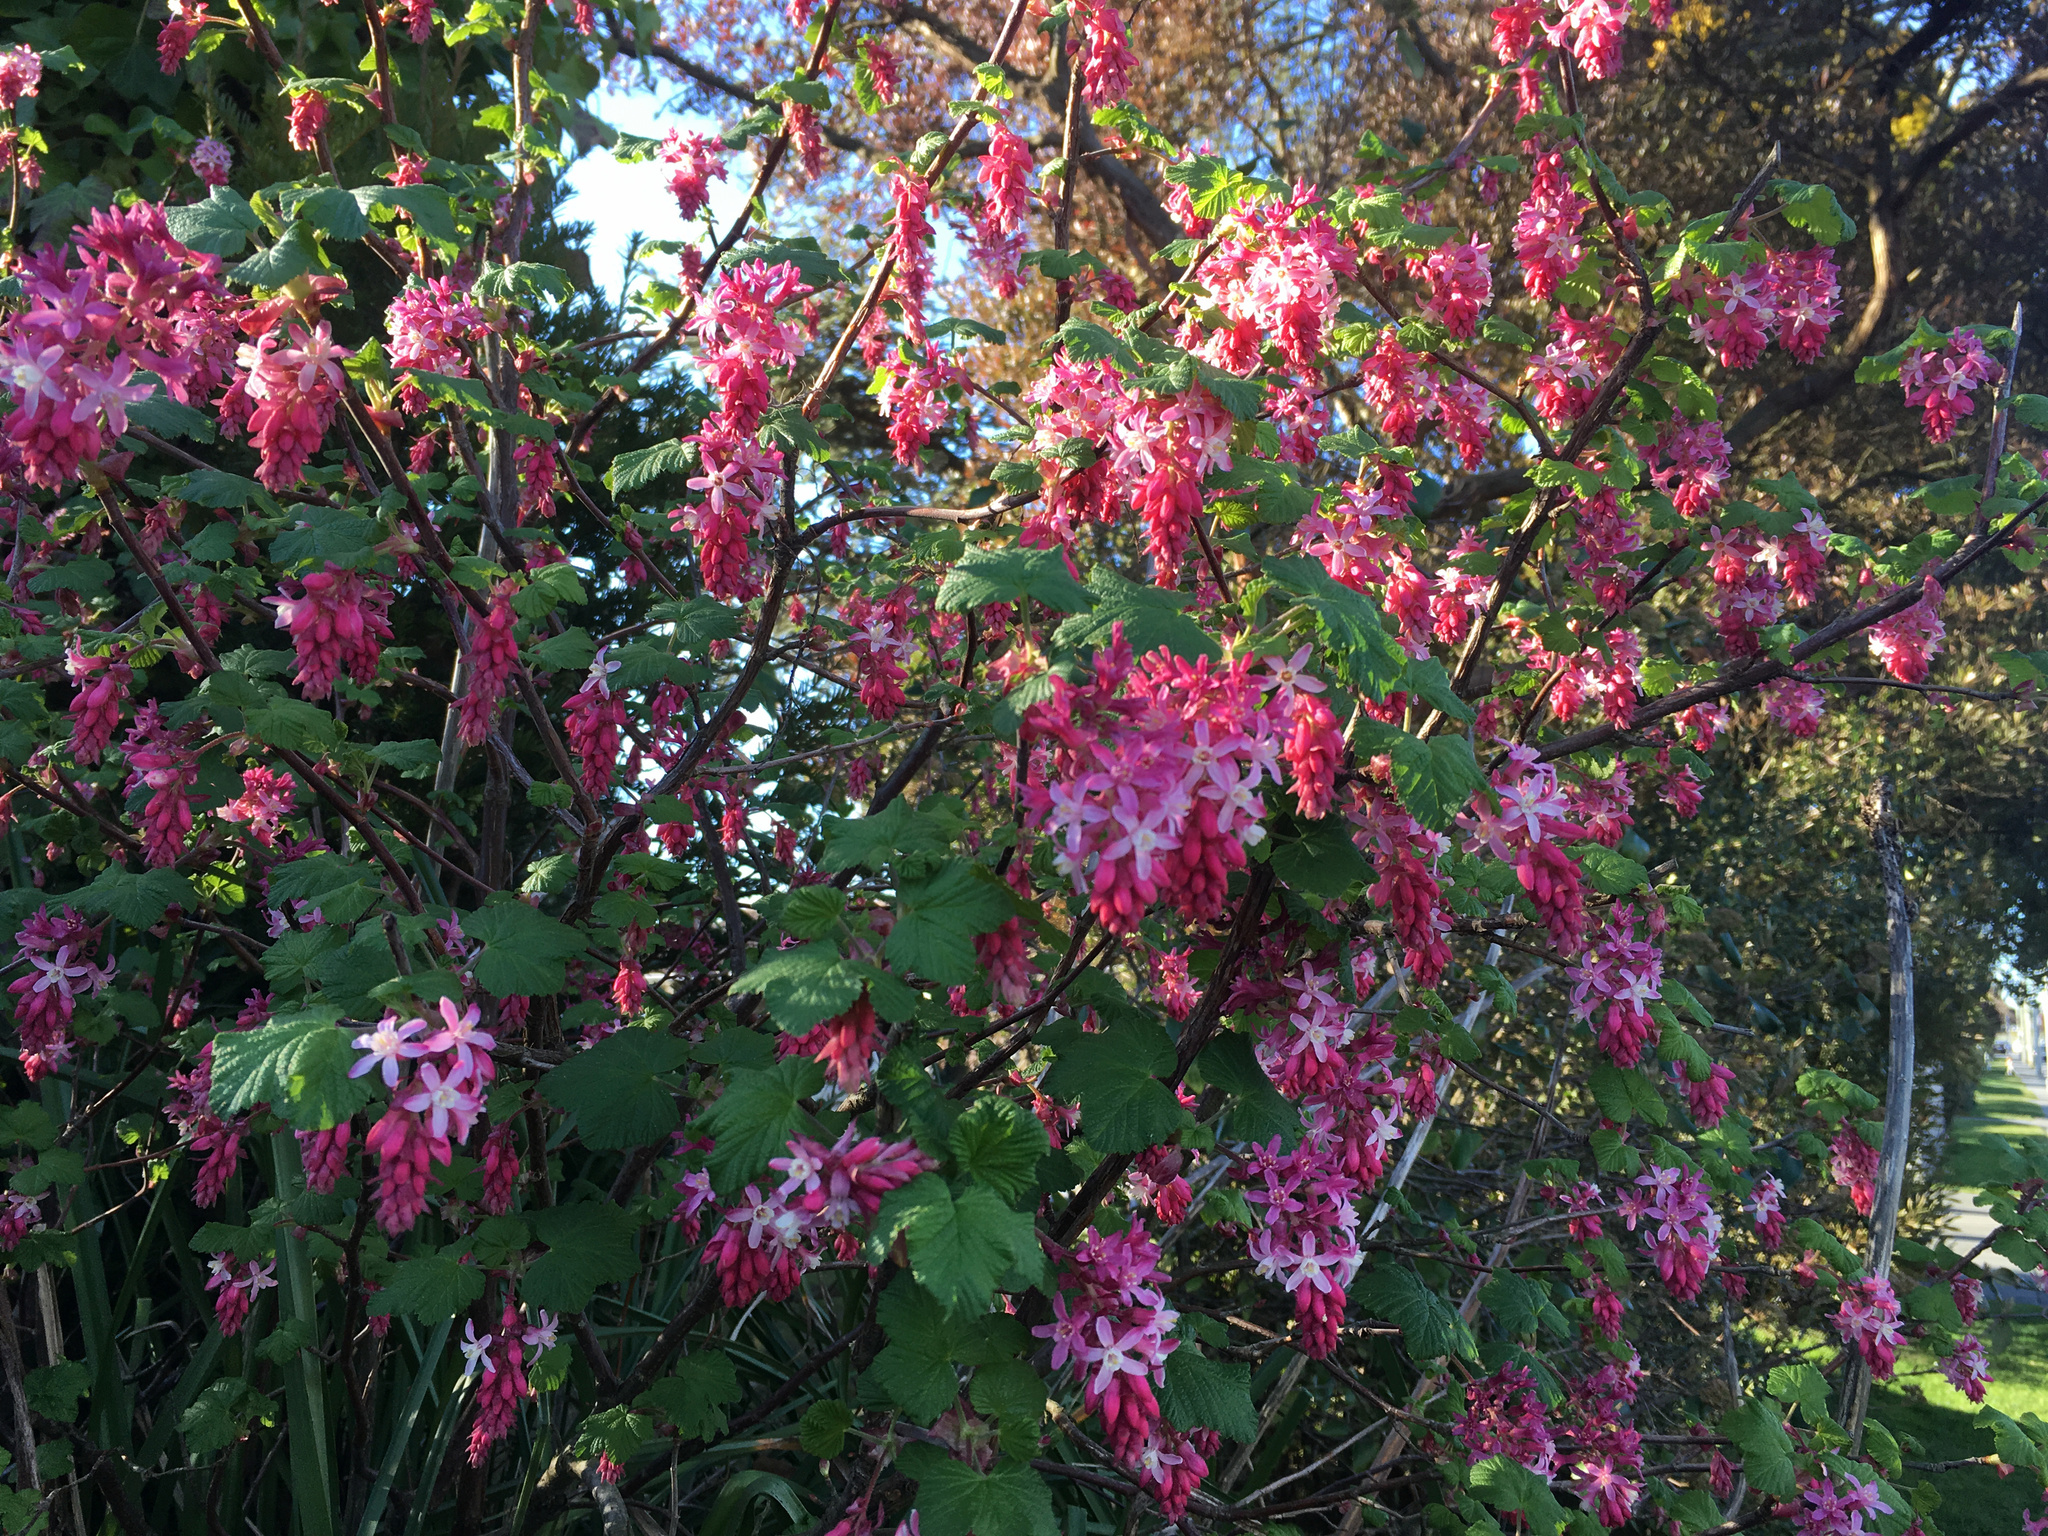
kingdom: Plantae
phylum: Tracheophyta
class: Magnoliopsida
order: Saxifragales
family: Grossulariaceae
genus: Ribes
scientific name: Ribes sanguineum
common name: Flowering currant
